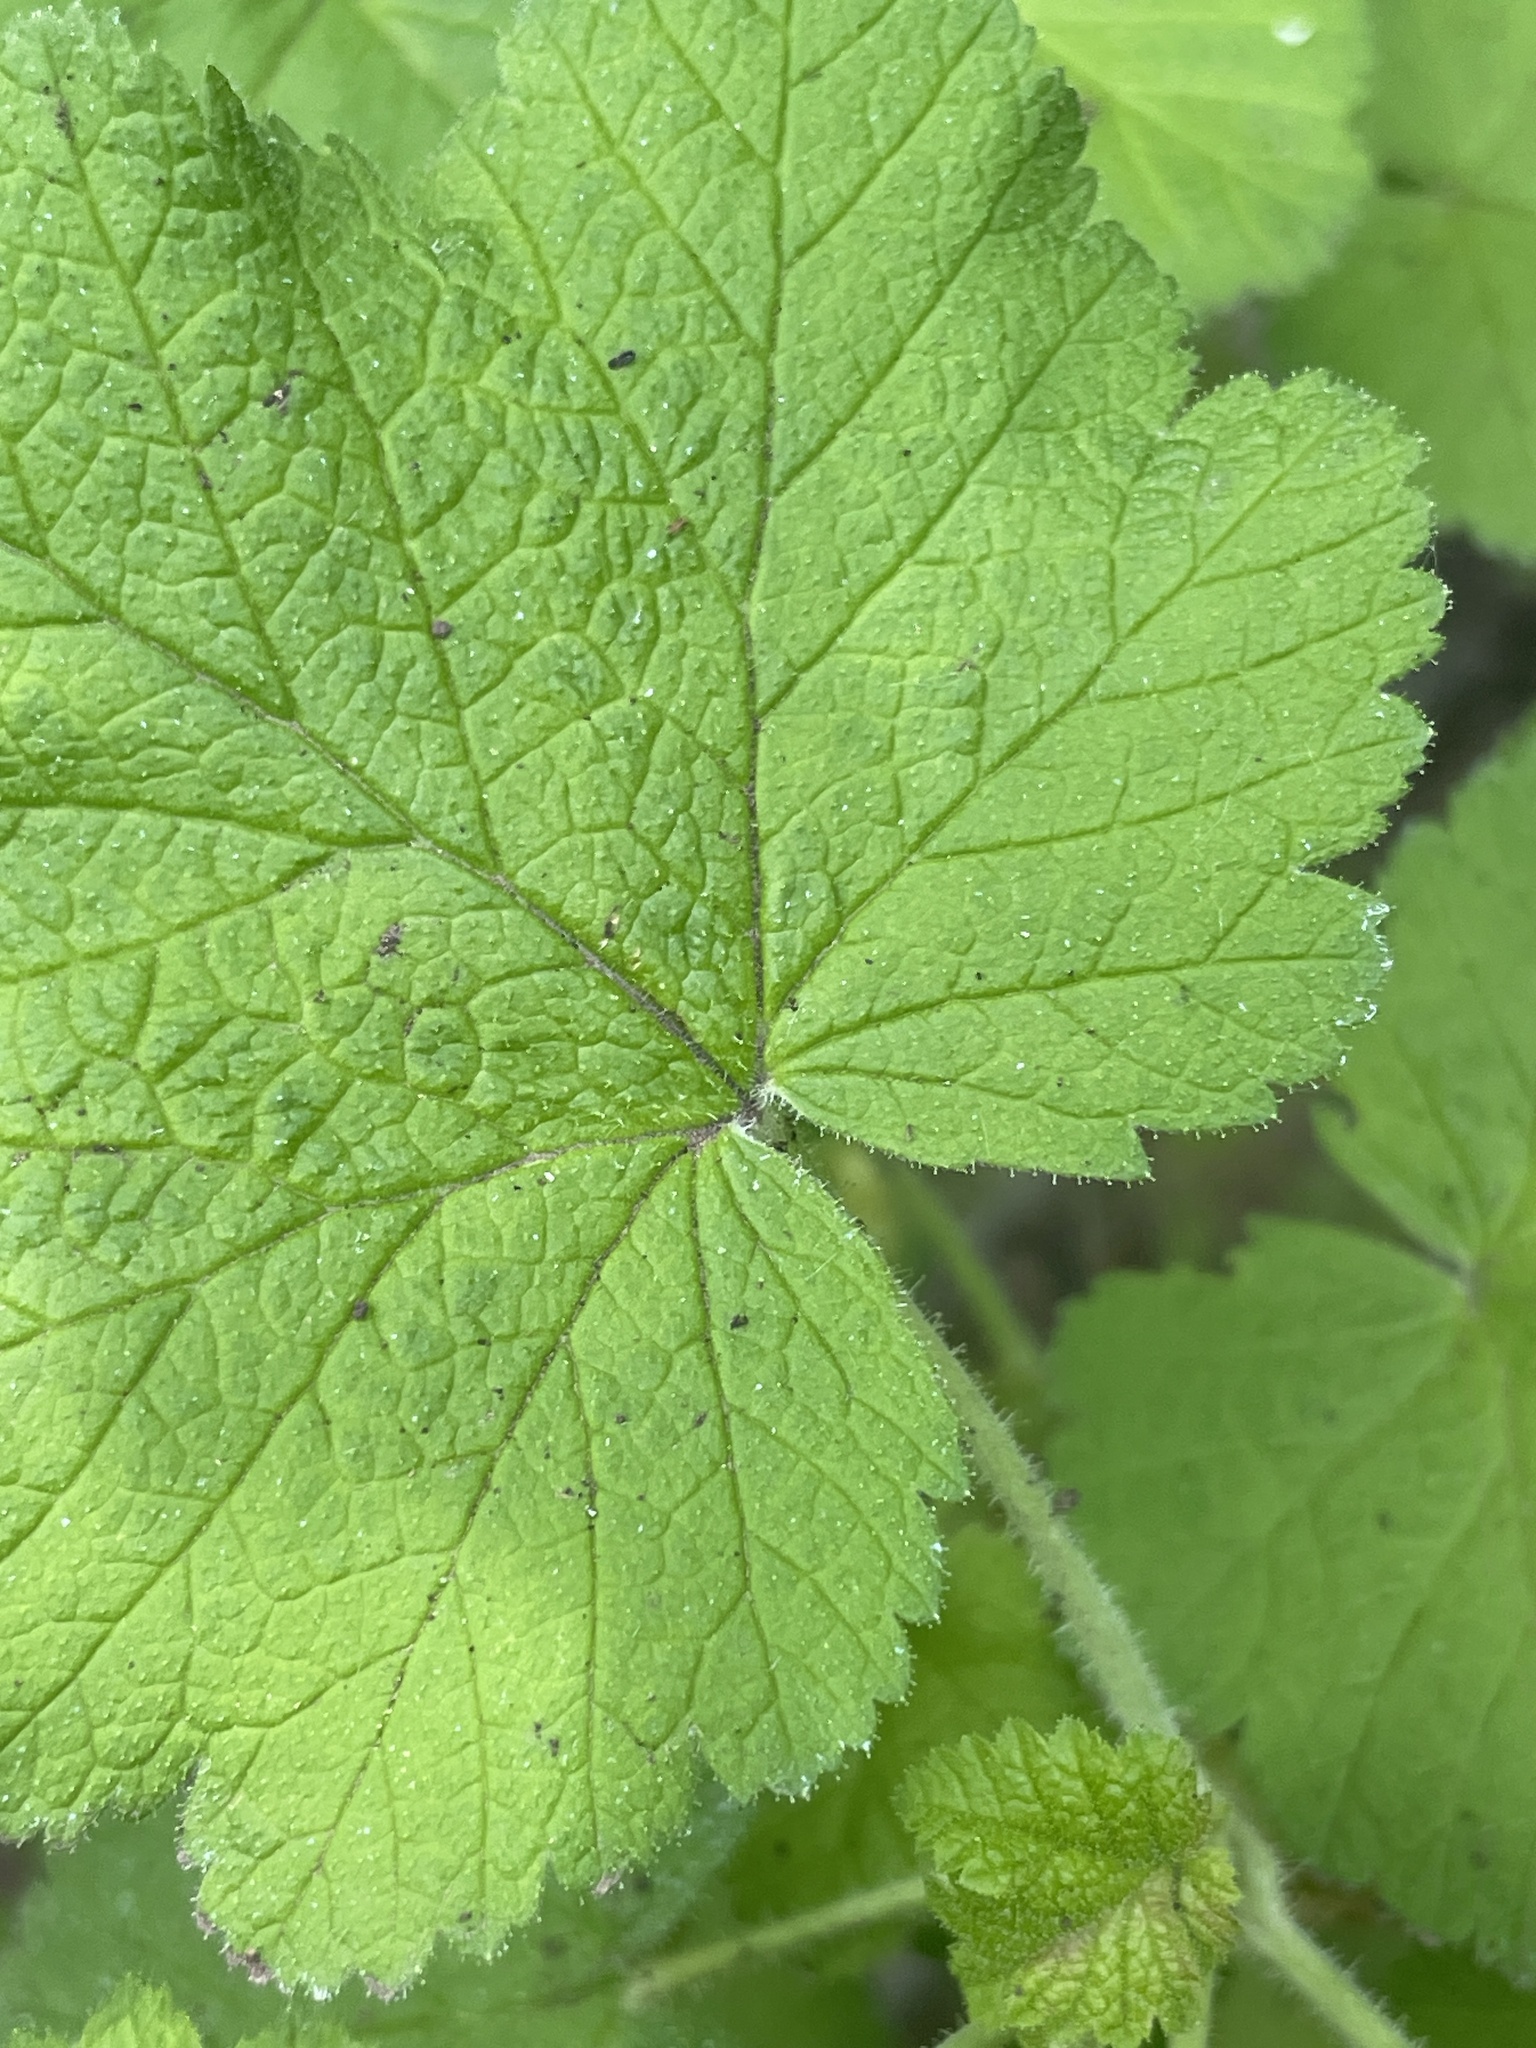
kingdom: Plantae
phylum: Tracheophyta
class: Magnoliopsida
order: Saxifragales
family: Grossulariaceae
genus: Ribes
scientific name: Ribes viscosissimum
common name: Sticky currant
